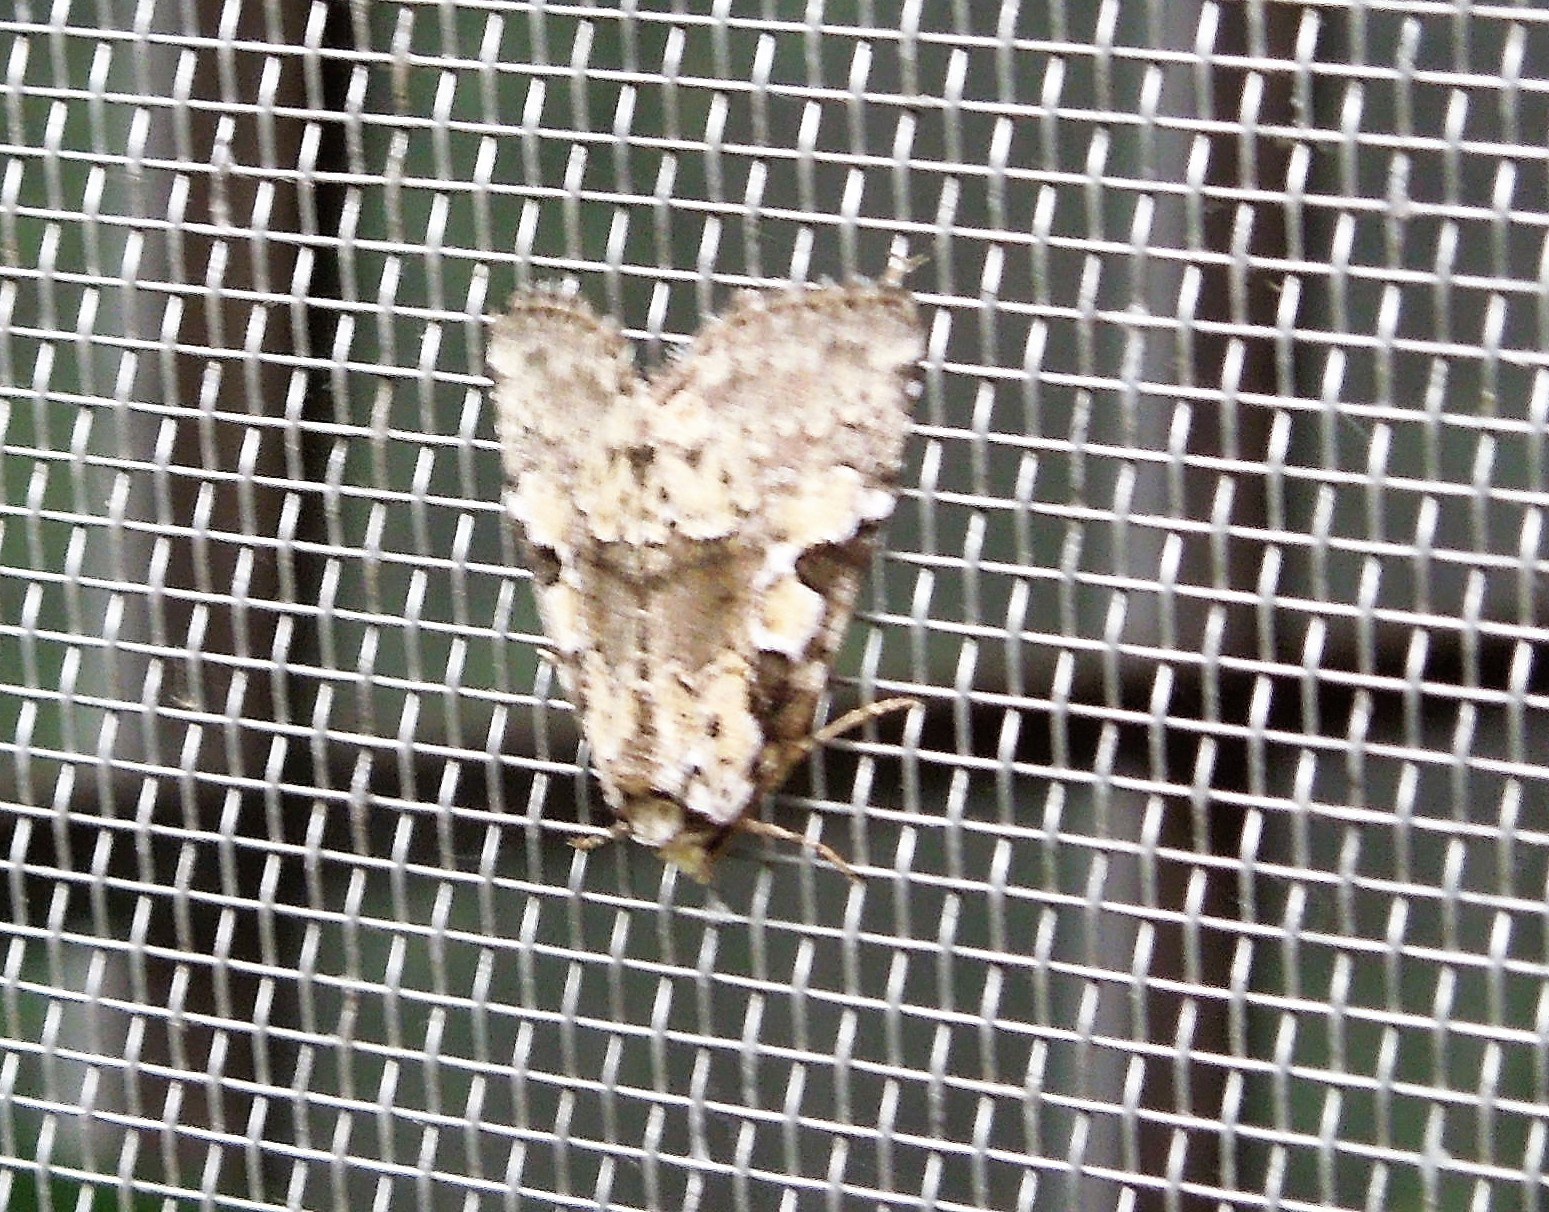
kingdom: Animalia
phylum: Arthropoda
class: Insecta
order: Lepidoptera
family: Noctuidae
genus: Leuconycta
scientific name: Leuconycta lepidula
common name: Marbled-green leuconycta moth
